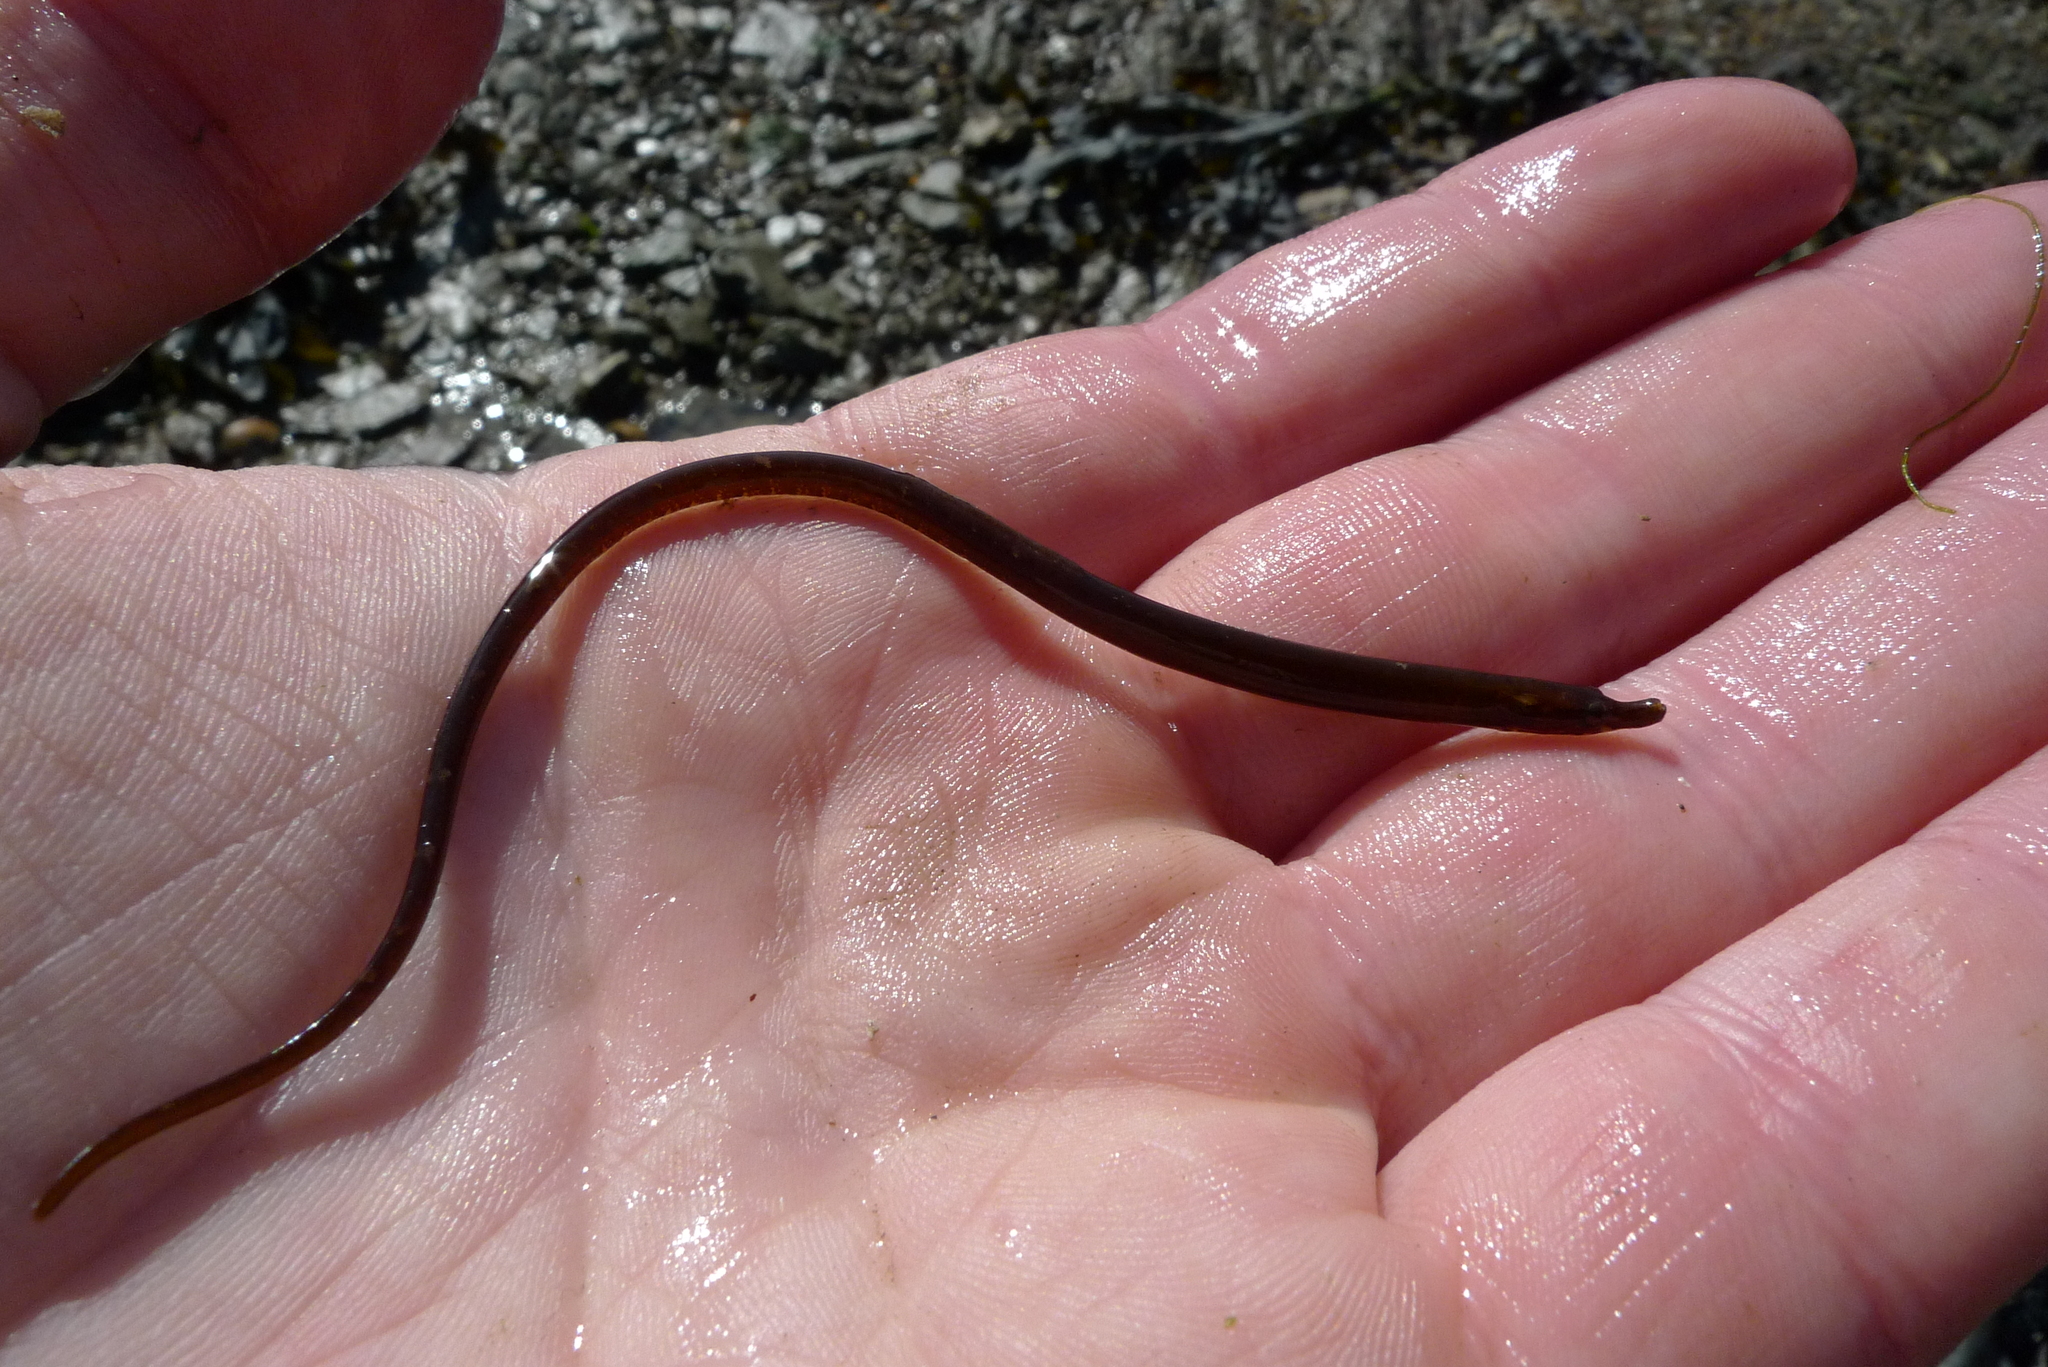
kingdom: Animalia
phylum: Chordata
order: Syngnathiformes
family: Syngnathidae
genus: Nerophis
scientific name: Nerophis lumbriciformis
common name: Worm pipefish
